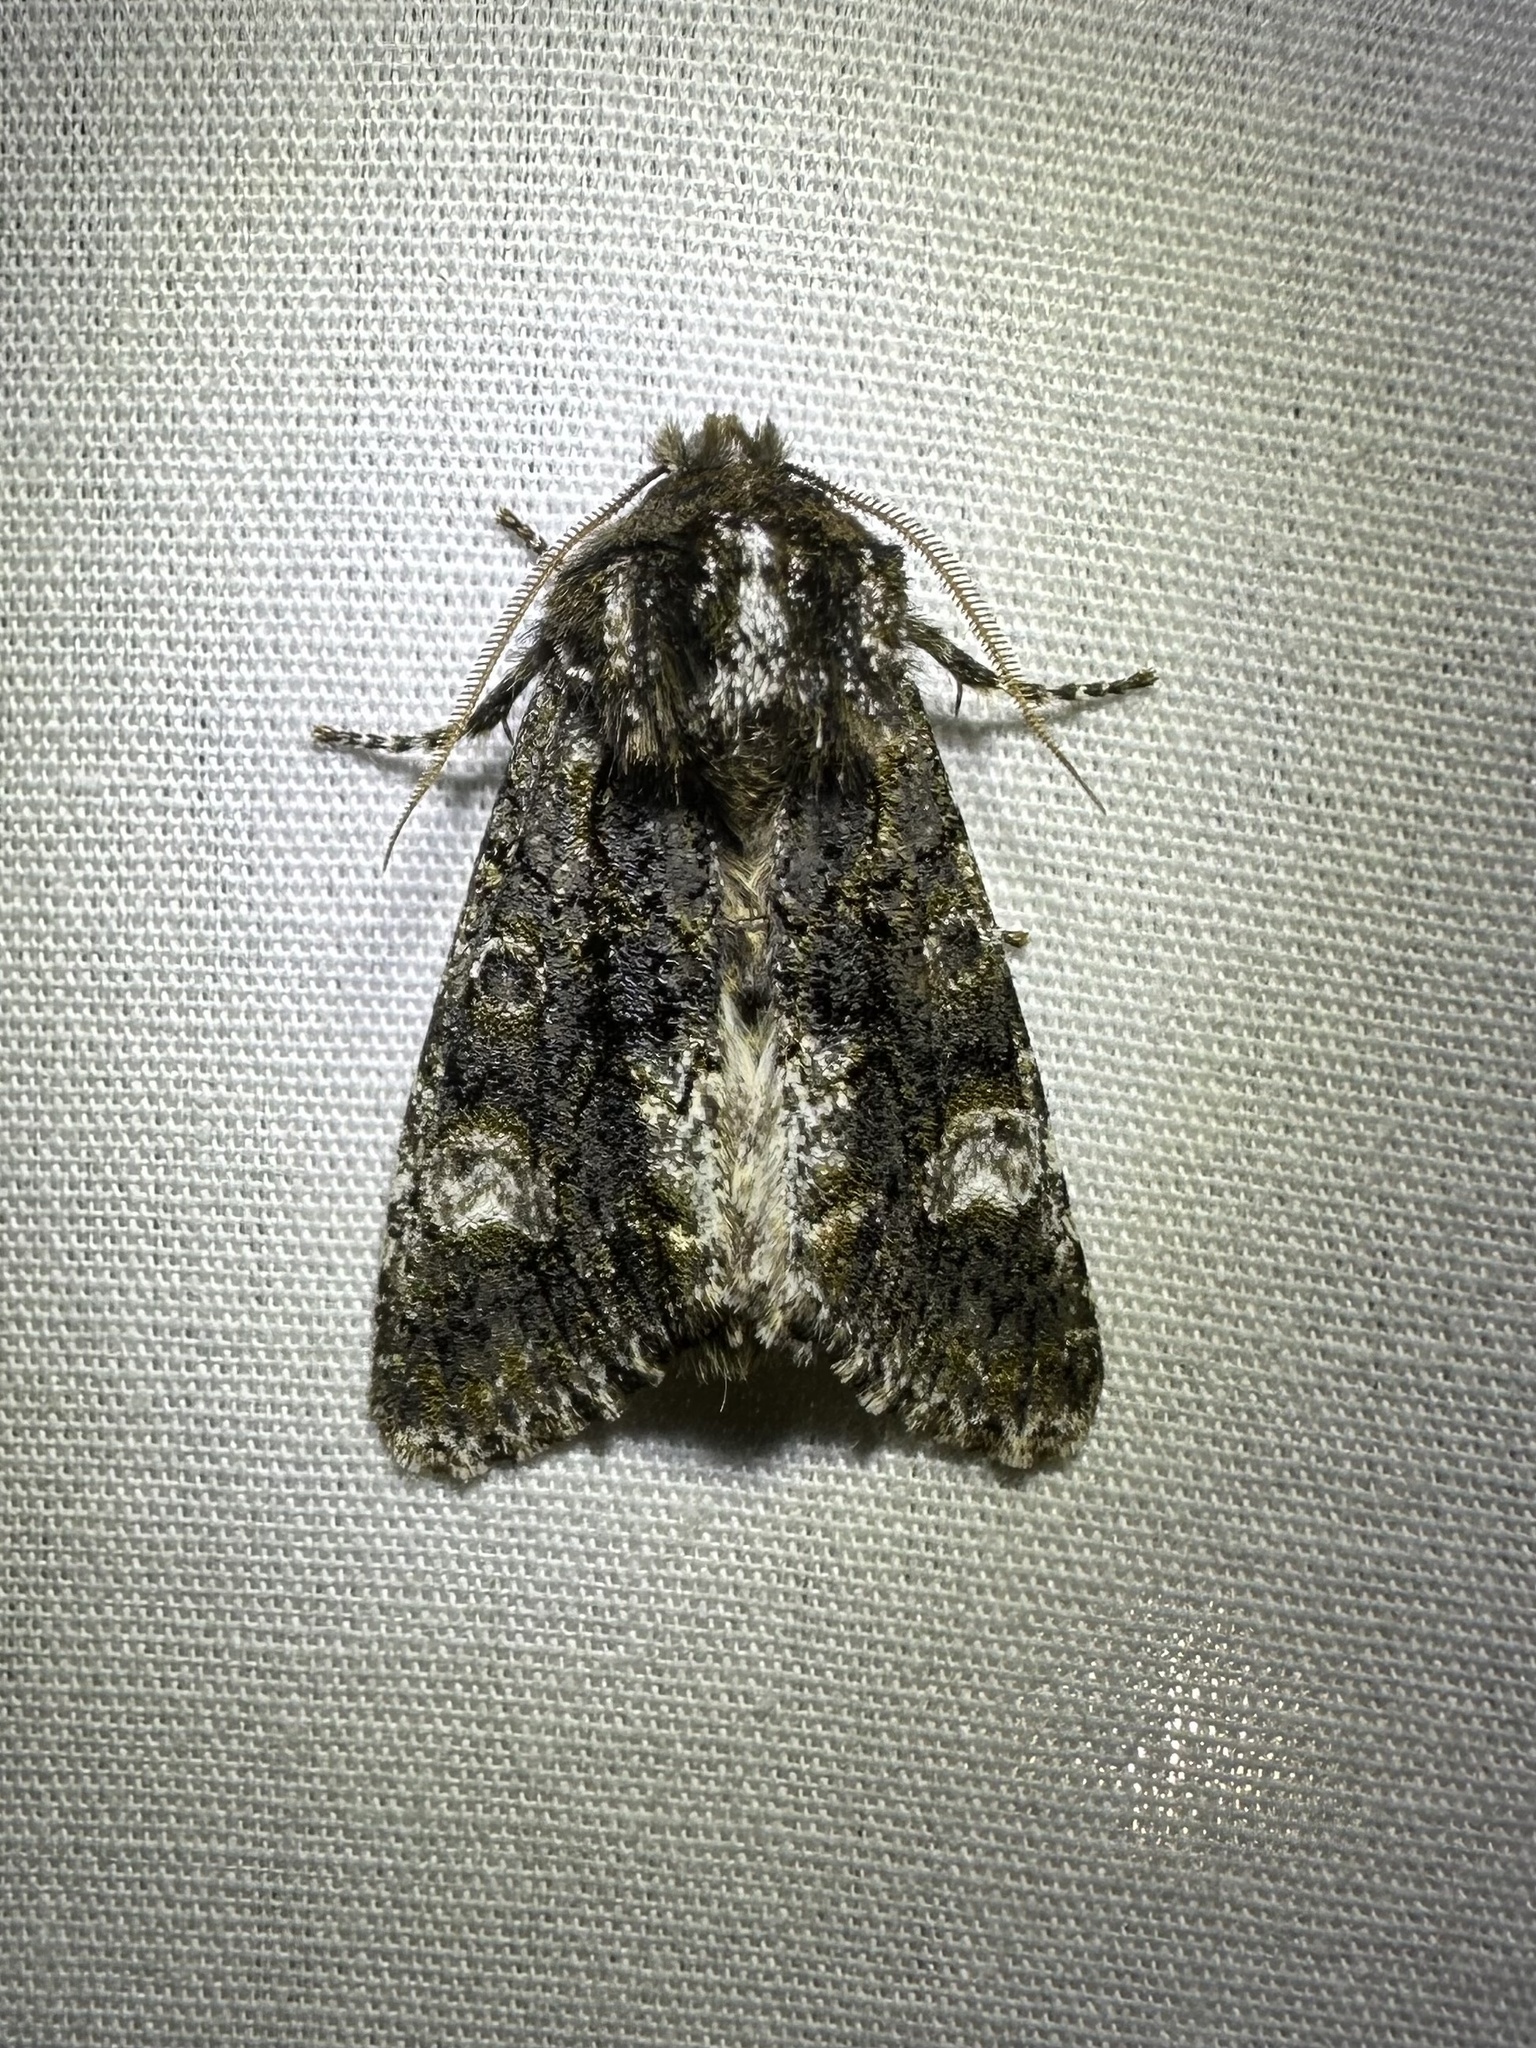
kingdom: Animalia
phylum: Arthropoda
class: Insecta
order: Lepidoptera
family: Noctuidae
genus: Psaphida
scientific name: Psaphida grotei
